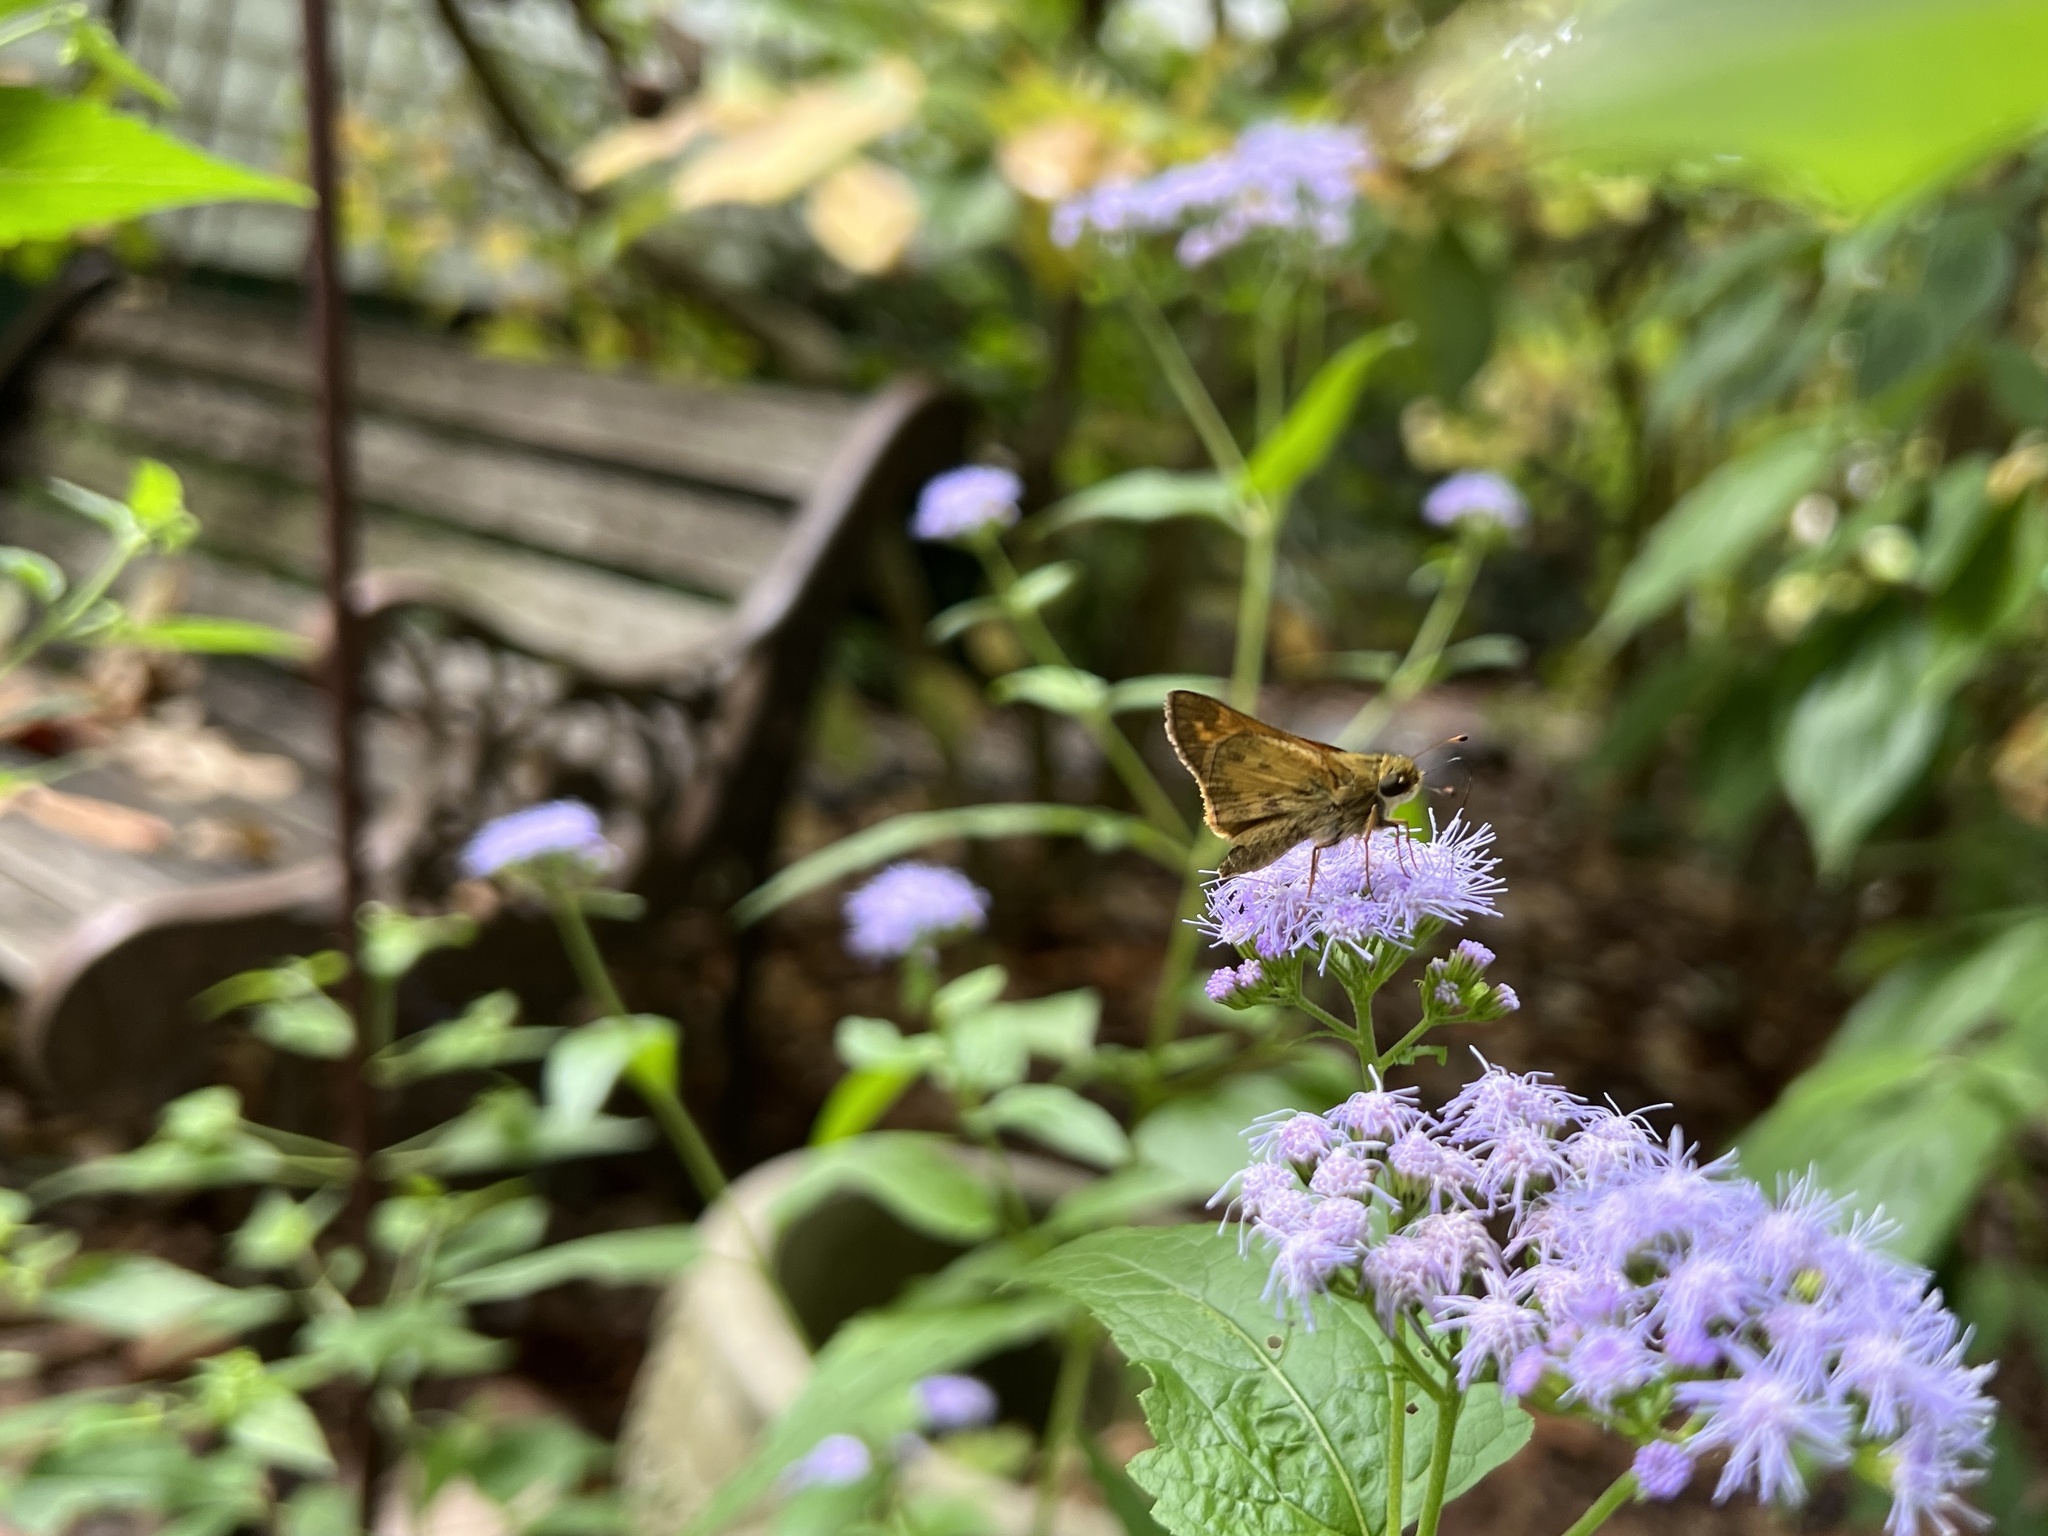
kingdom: Animalia
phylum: Arthropoda
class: Insecta
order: Lepidoptera
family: Hesperiidae
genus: Atalopedes
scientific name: Atalopedes
